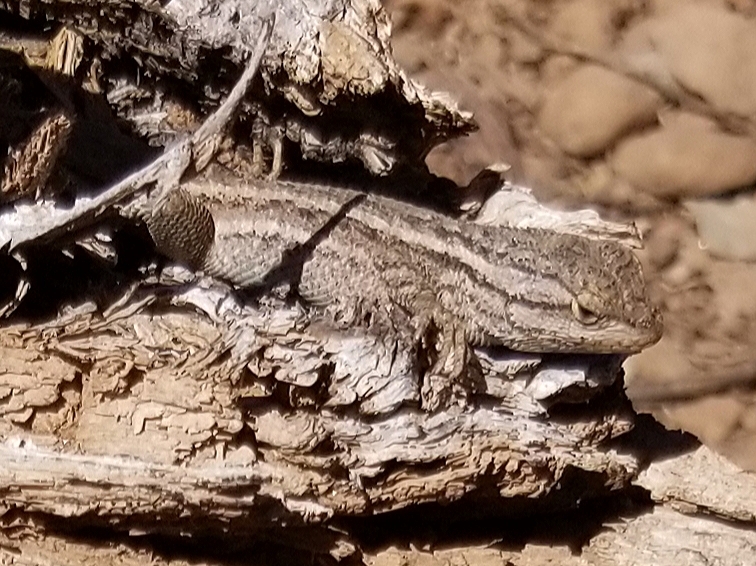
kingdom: Animalia
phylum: Chordata
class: Squamata
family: Phrynosomatidae
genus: Sceloporus
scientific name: Sceloporus tristichus
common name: Plateau fence lizard
